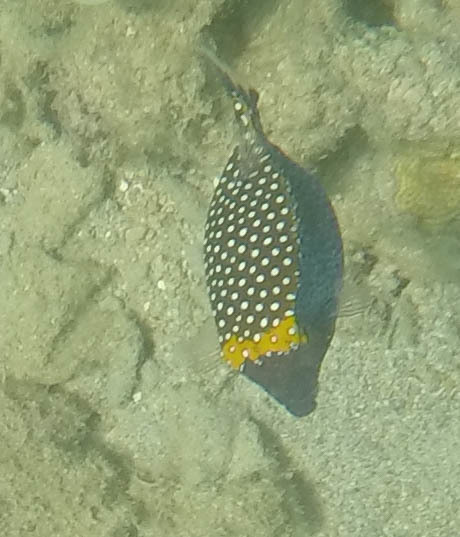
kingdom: Animalia
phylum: Chordata
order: Tetraodontiformes
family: Ostraciidae
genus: Ostracion
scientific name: Ostracion meleagris
